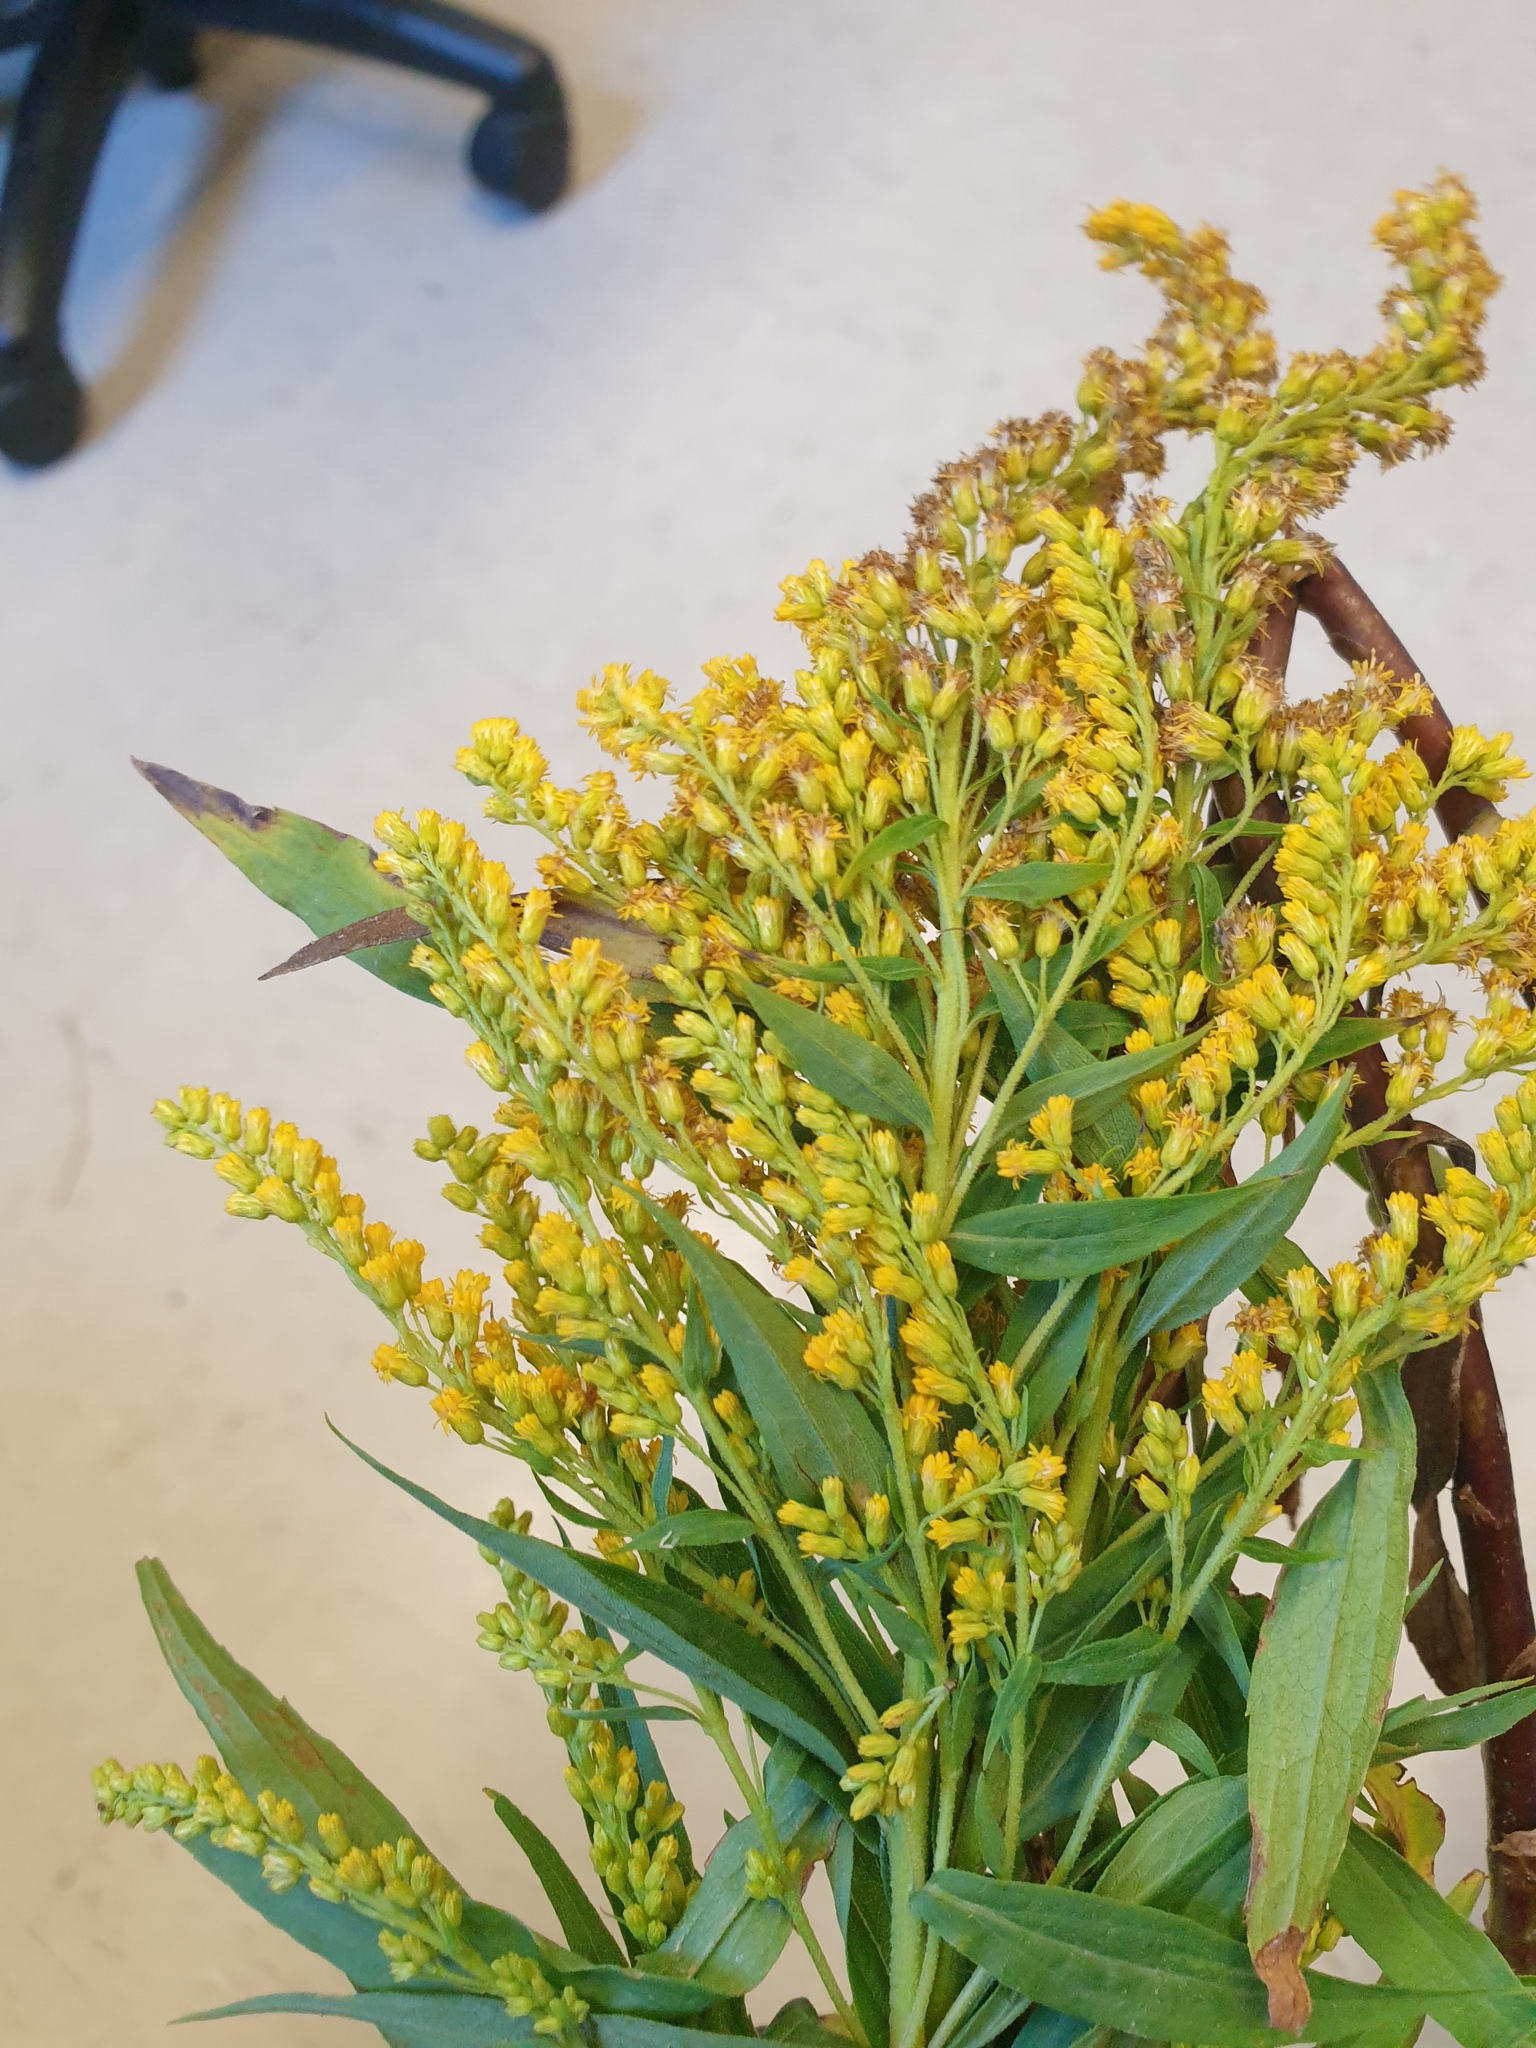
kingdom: Plantae
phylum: Tracheophyta
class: Magnoliopsida
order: Asterales
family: Asteraceae
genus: Solidago
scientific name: Solidago canadensis
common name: Canada goldenrod
